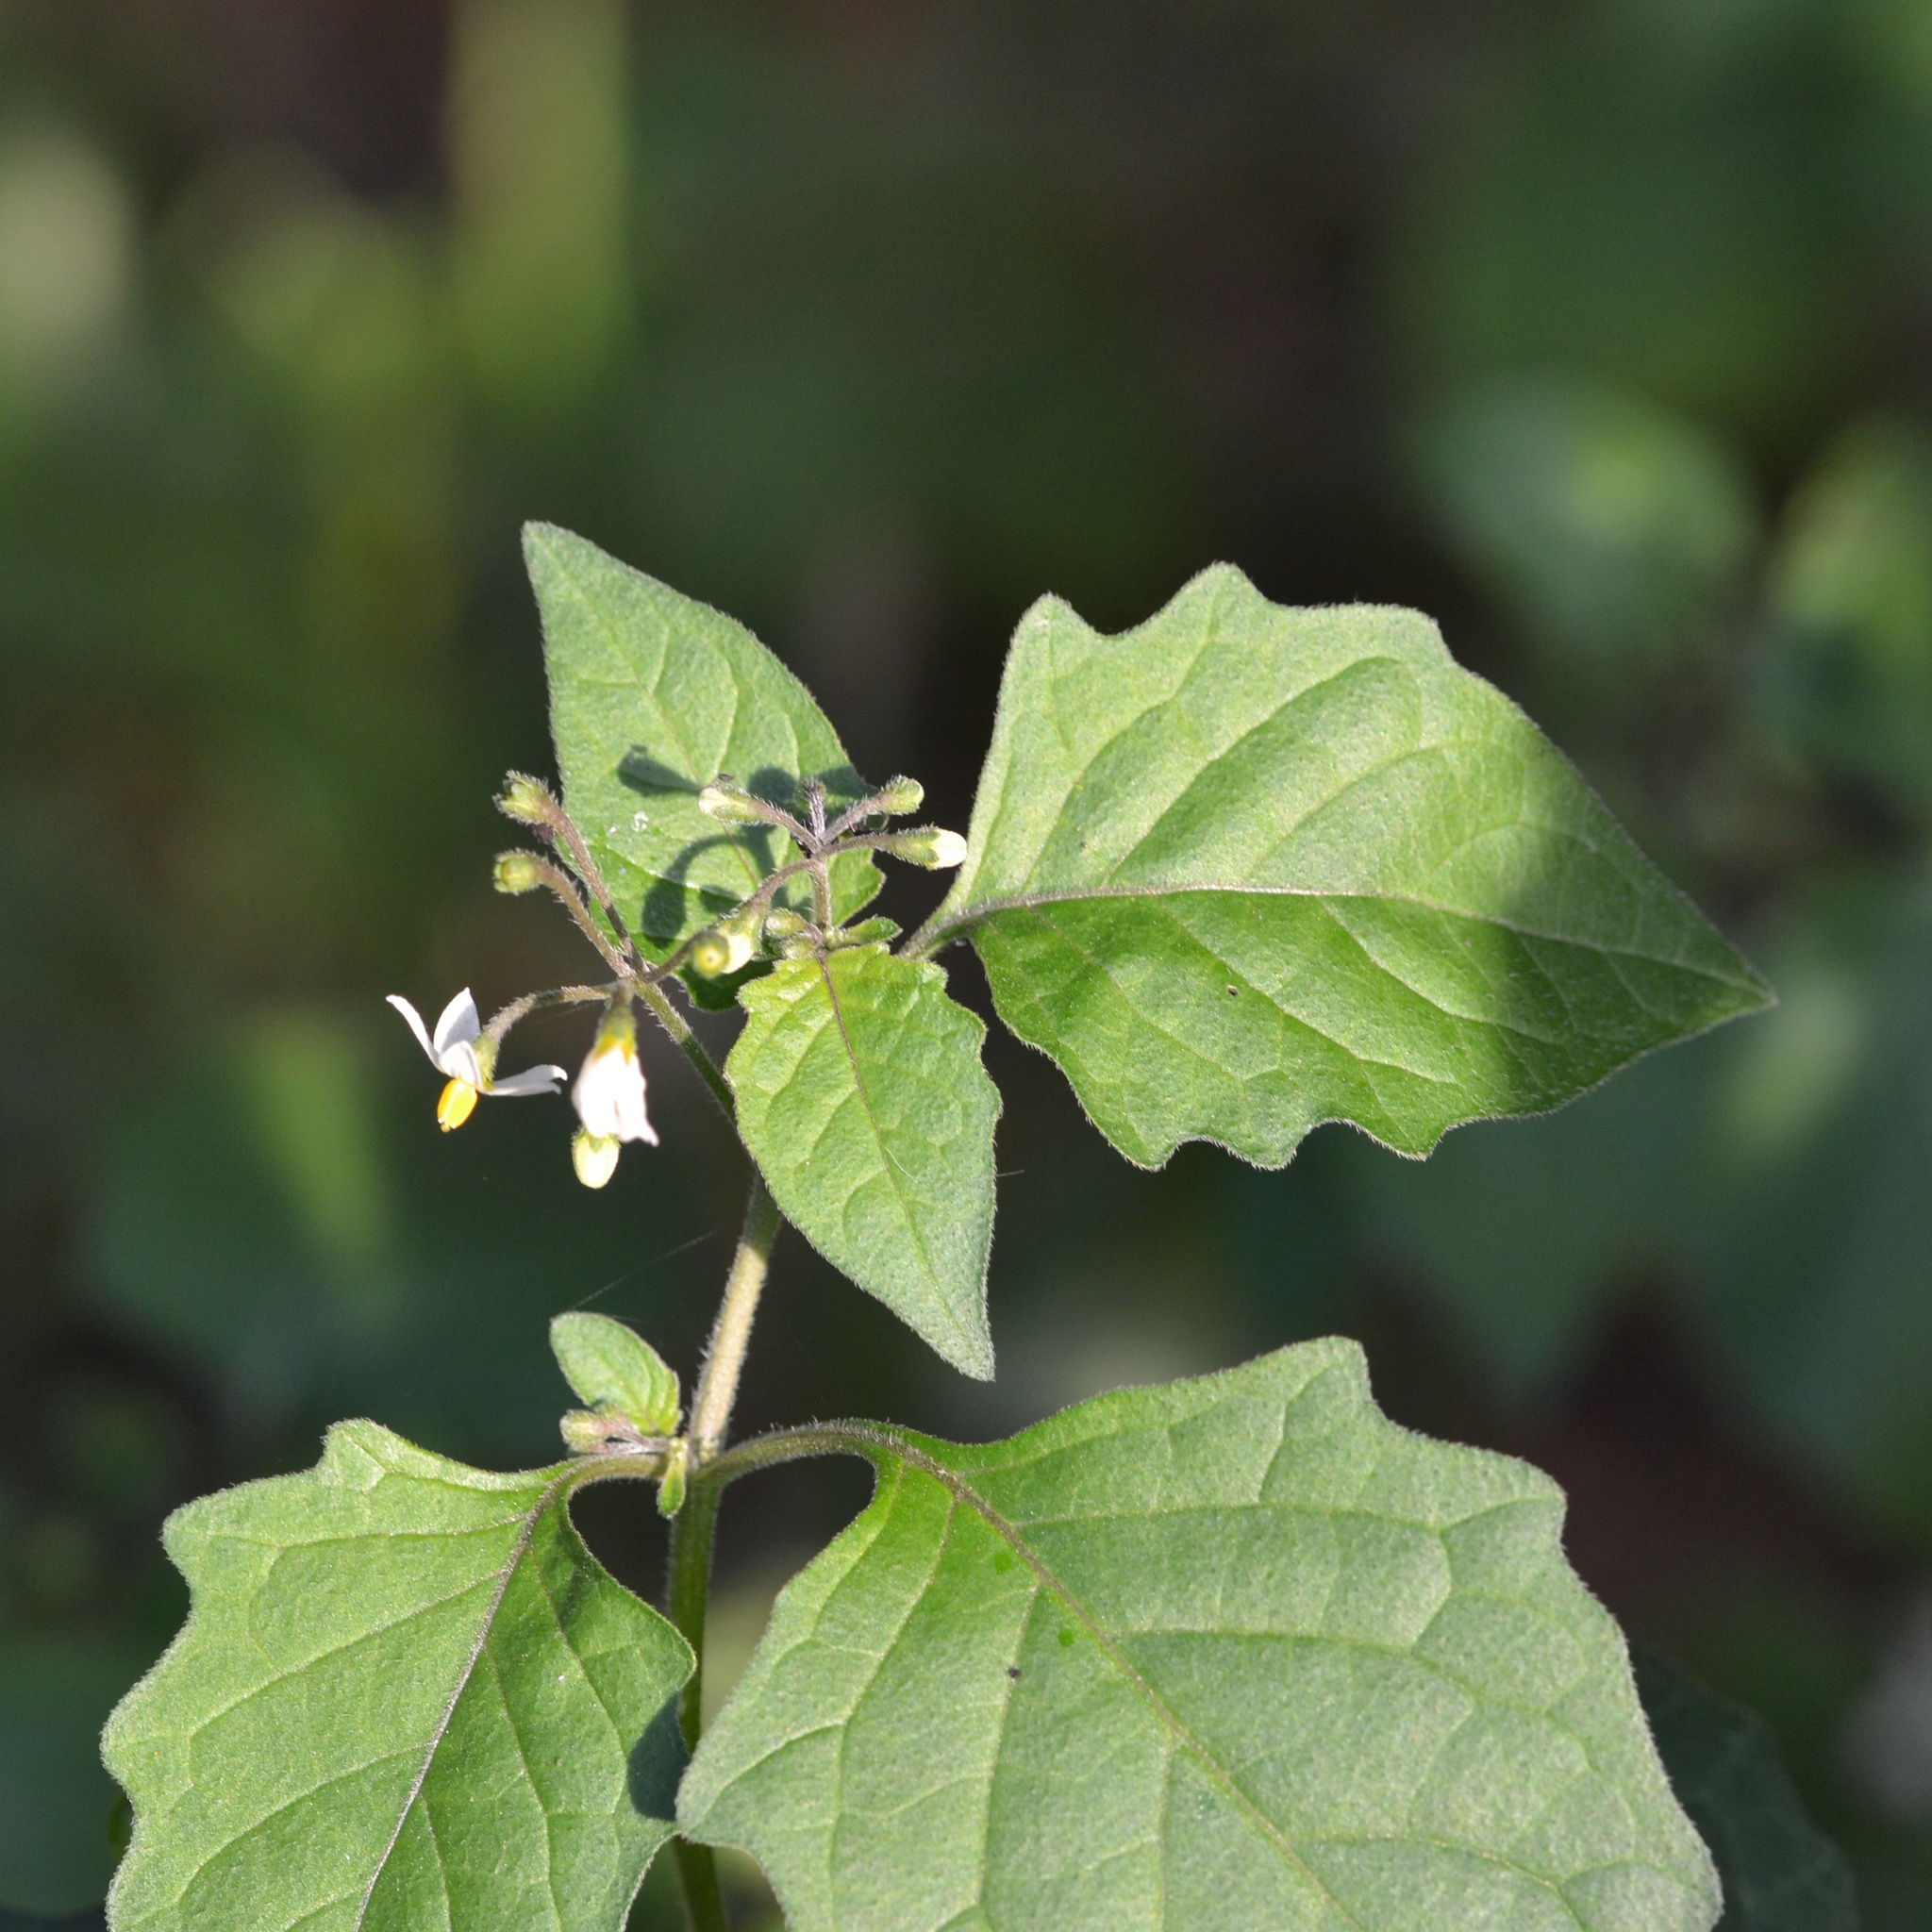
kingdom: Plantae
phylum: Tracheophyta
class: Magnoliopsida
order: Solanales
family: Solanaceae
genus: Solanum
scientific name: Solanum nigrum
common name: Black nightshade
